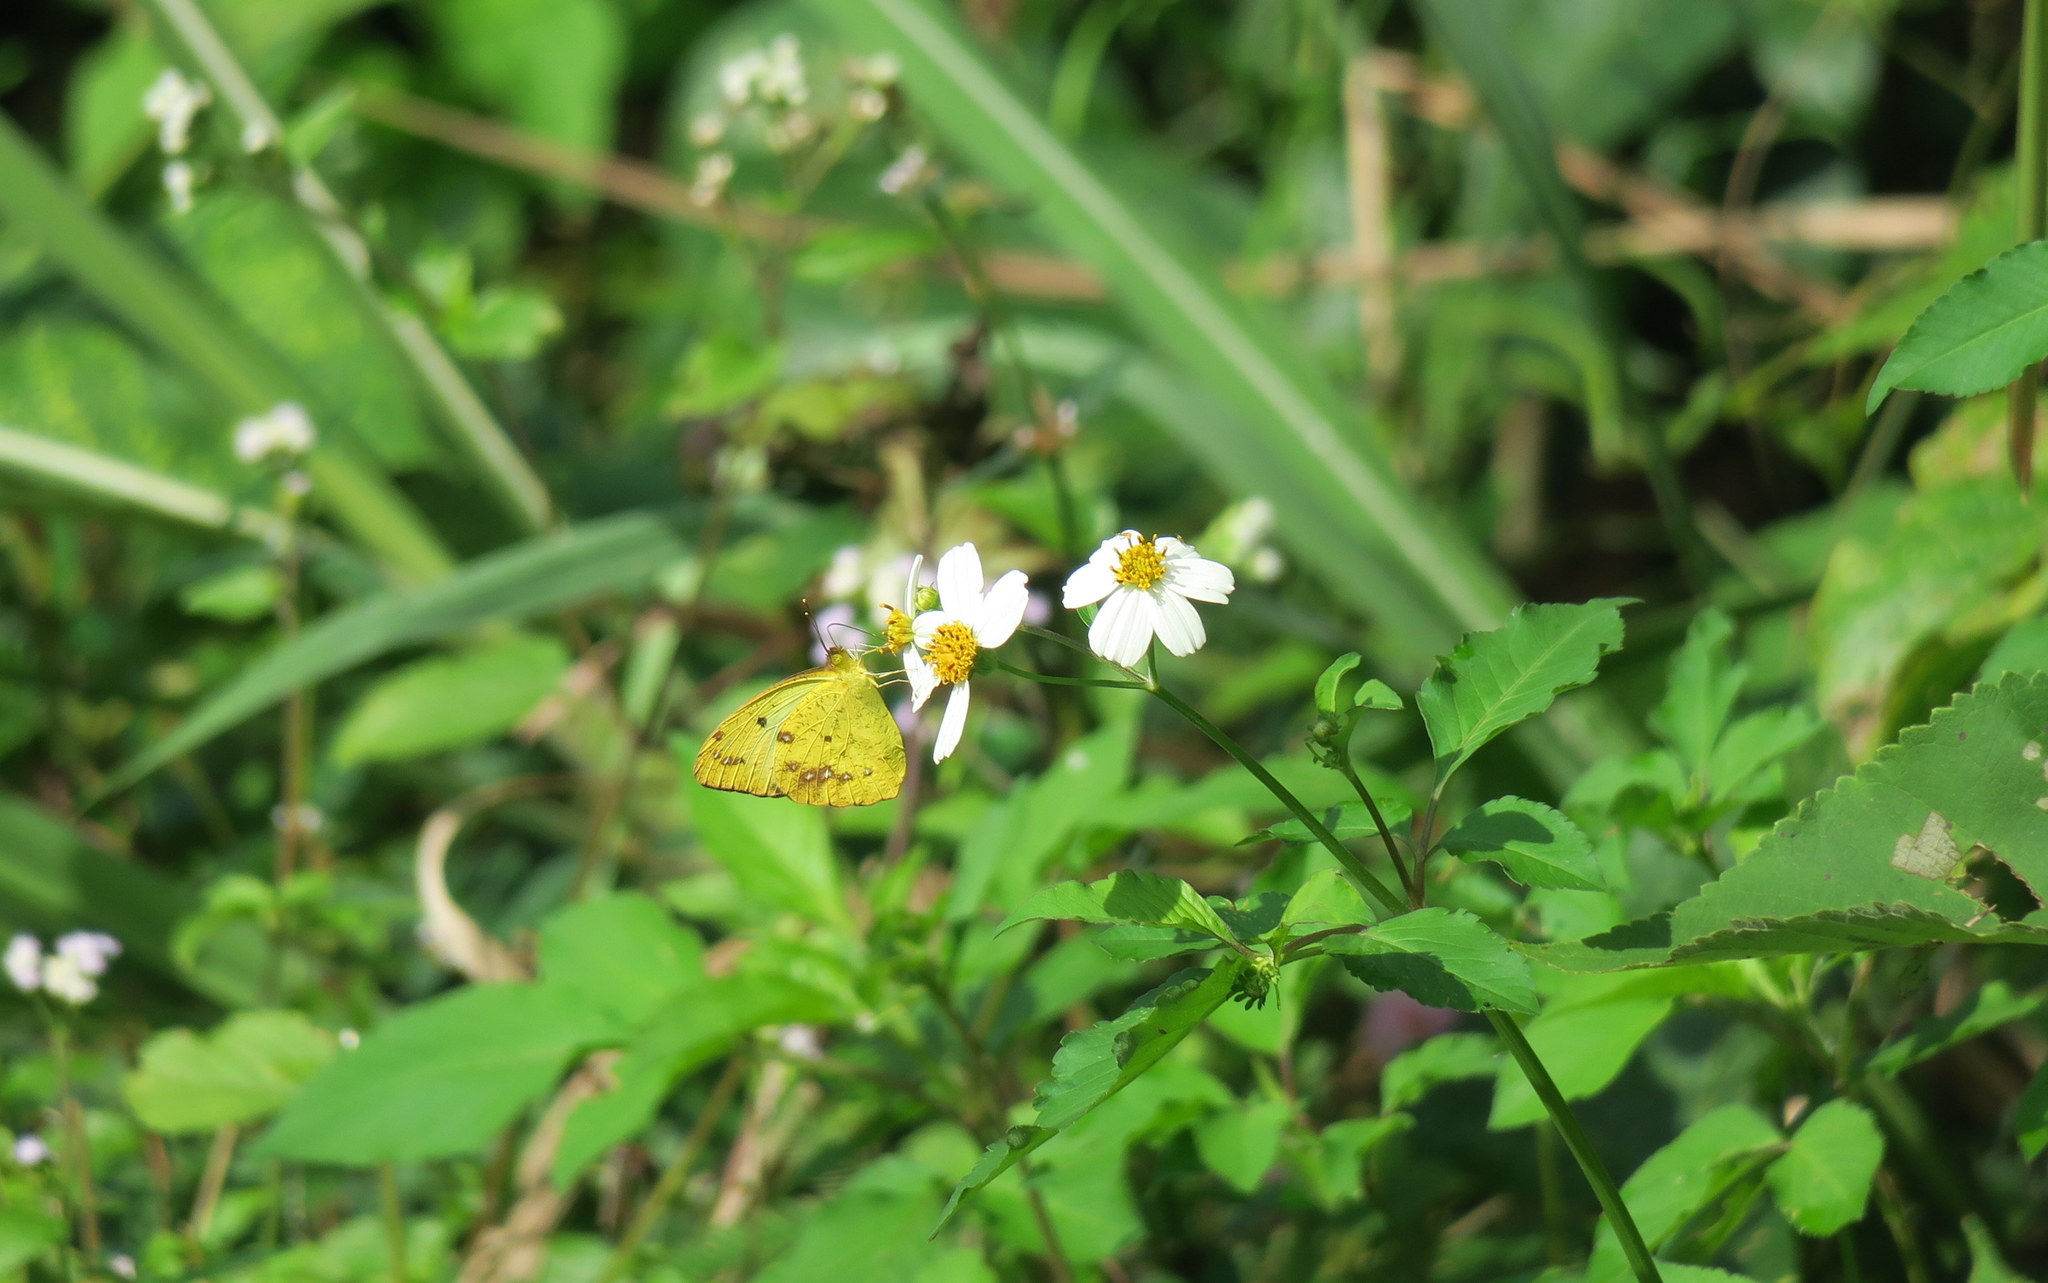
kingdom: Animalia
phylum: Arthropoda
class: Insecta
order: Lepidoptera
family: Pieridae
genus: Ixias
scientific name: Ixias pyrene
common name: Yellow orange tip
